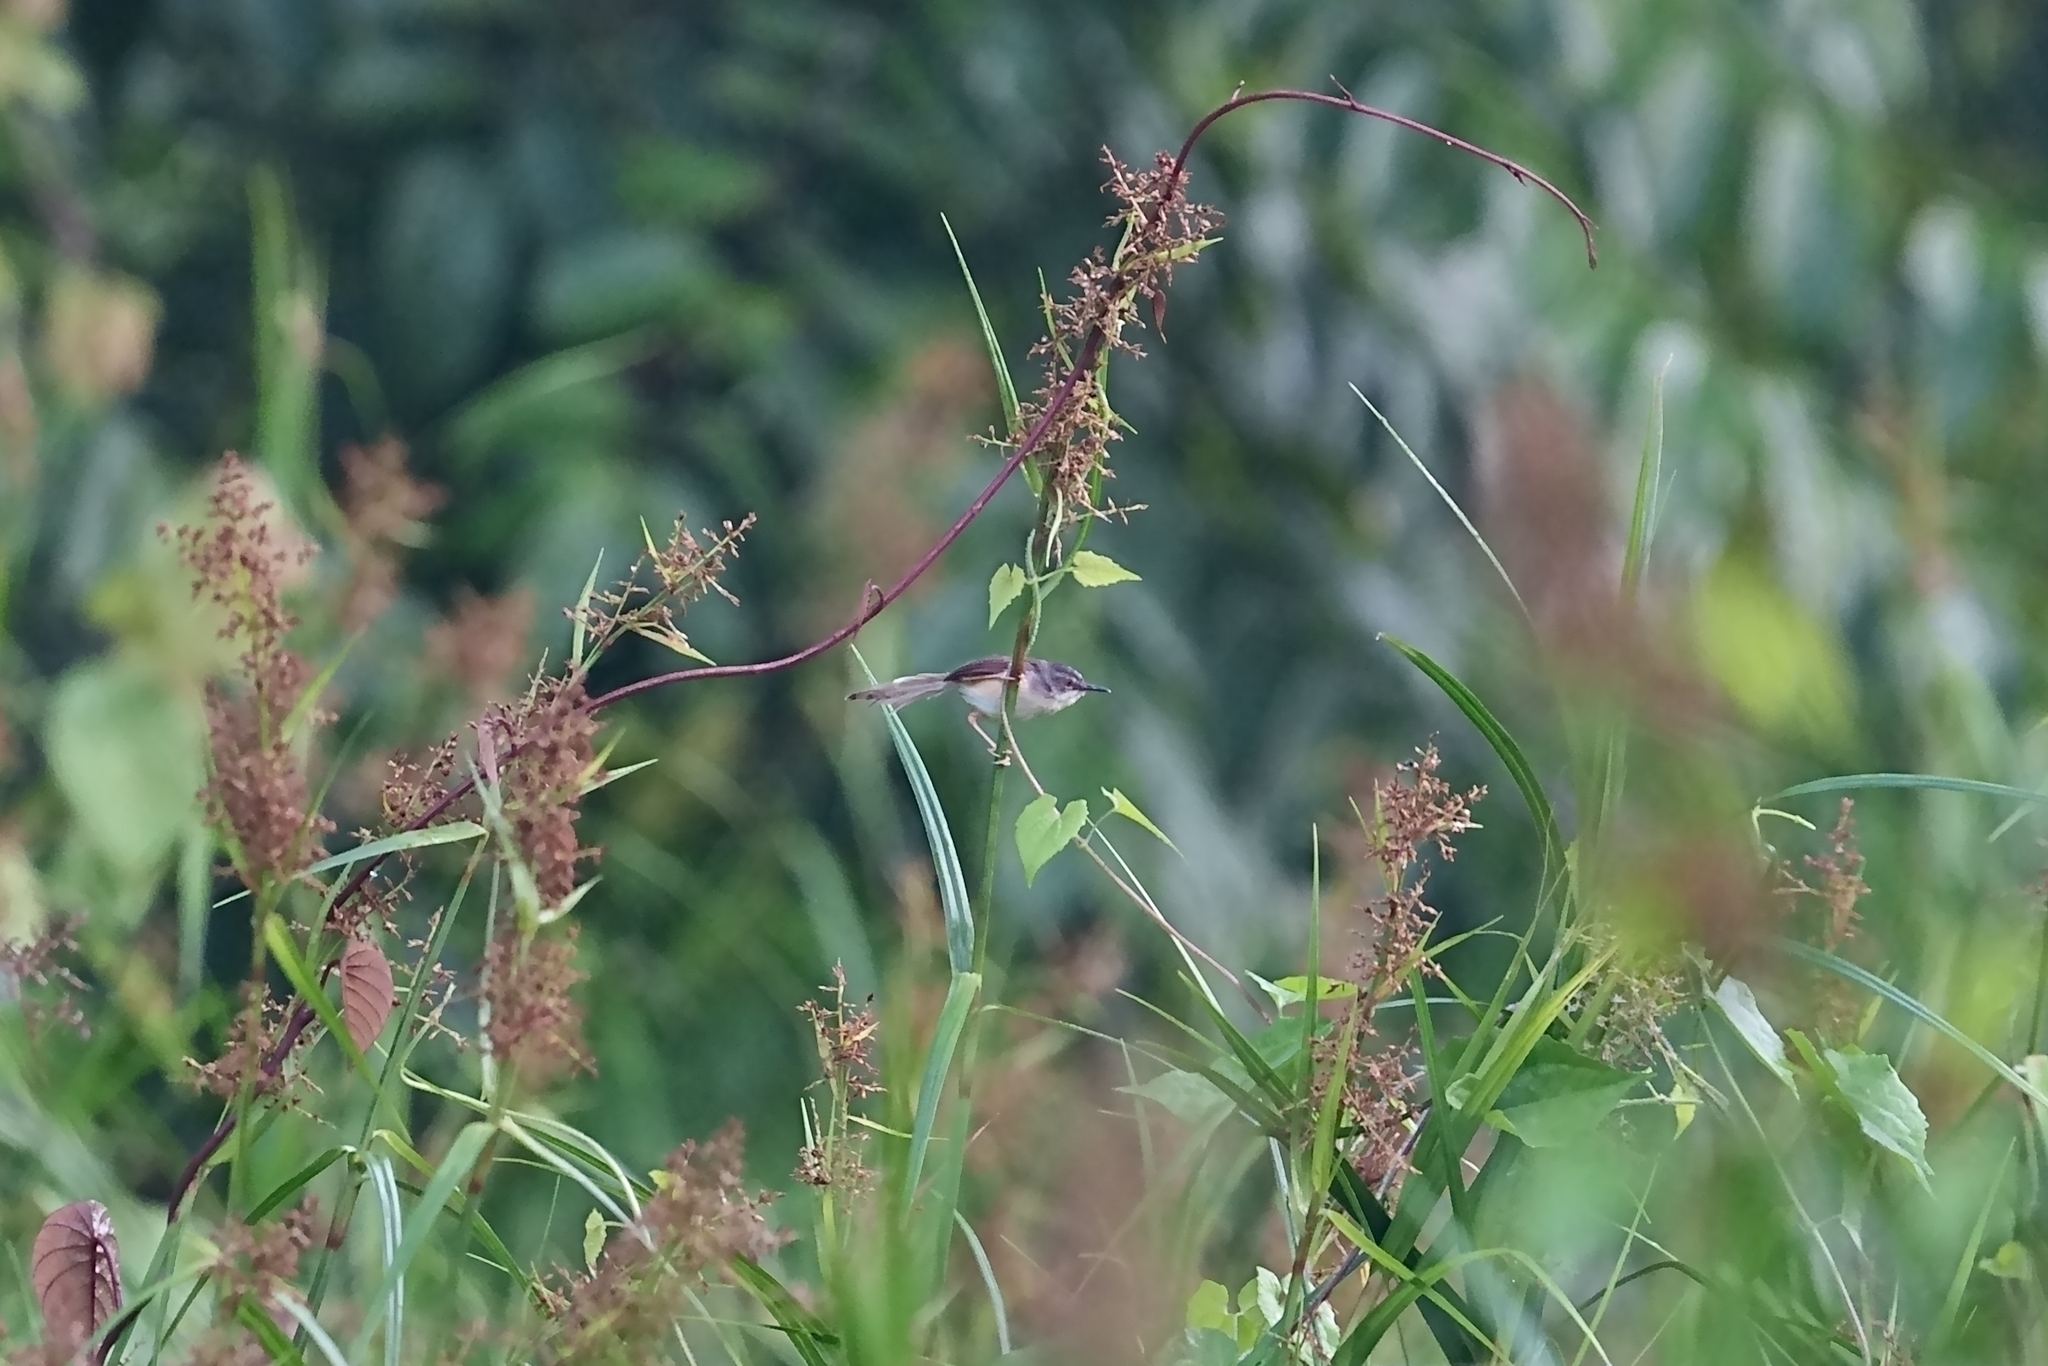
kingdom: Animalia
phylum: Chordata
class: Aves
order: Passeriformes
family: Cisticolidae
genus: Prinia
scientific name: Prinia flaviventris
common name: Yellow-bellied prinia
